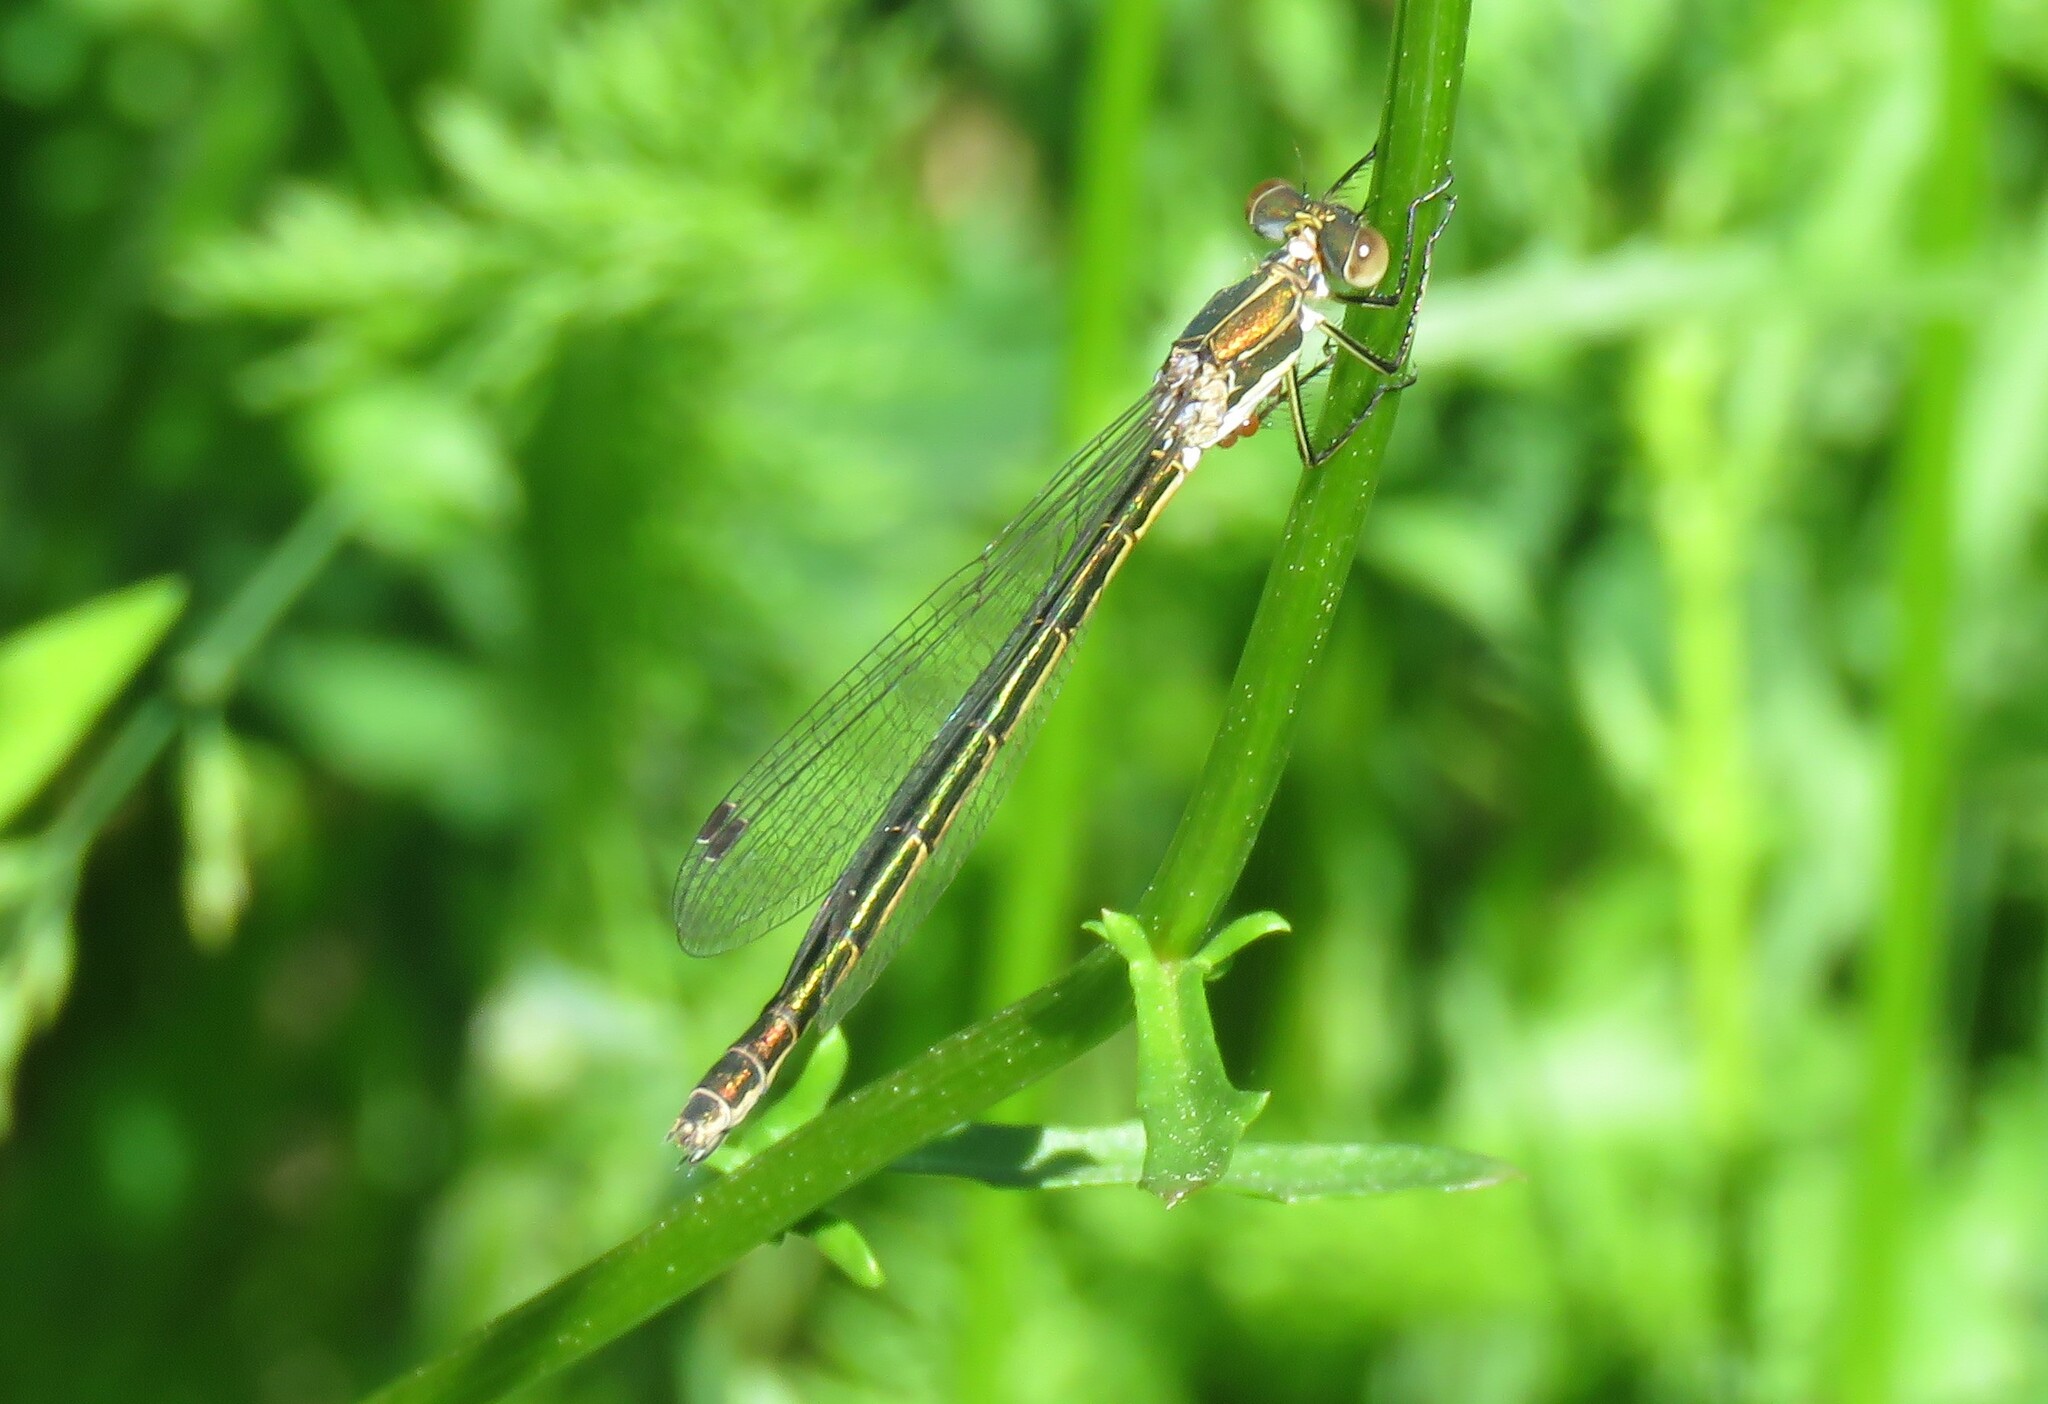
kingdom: Animalia
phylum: Arthropoda
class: Insecta
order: Odonata
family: Lestidae
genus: Lestes
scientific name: Lestes dryas
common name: Scarce emerald damselfly
